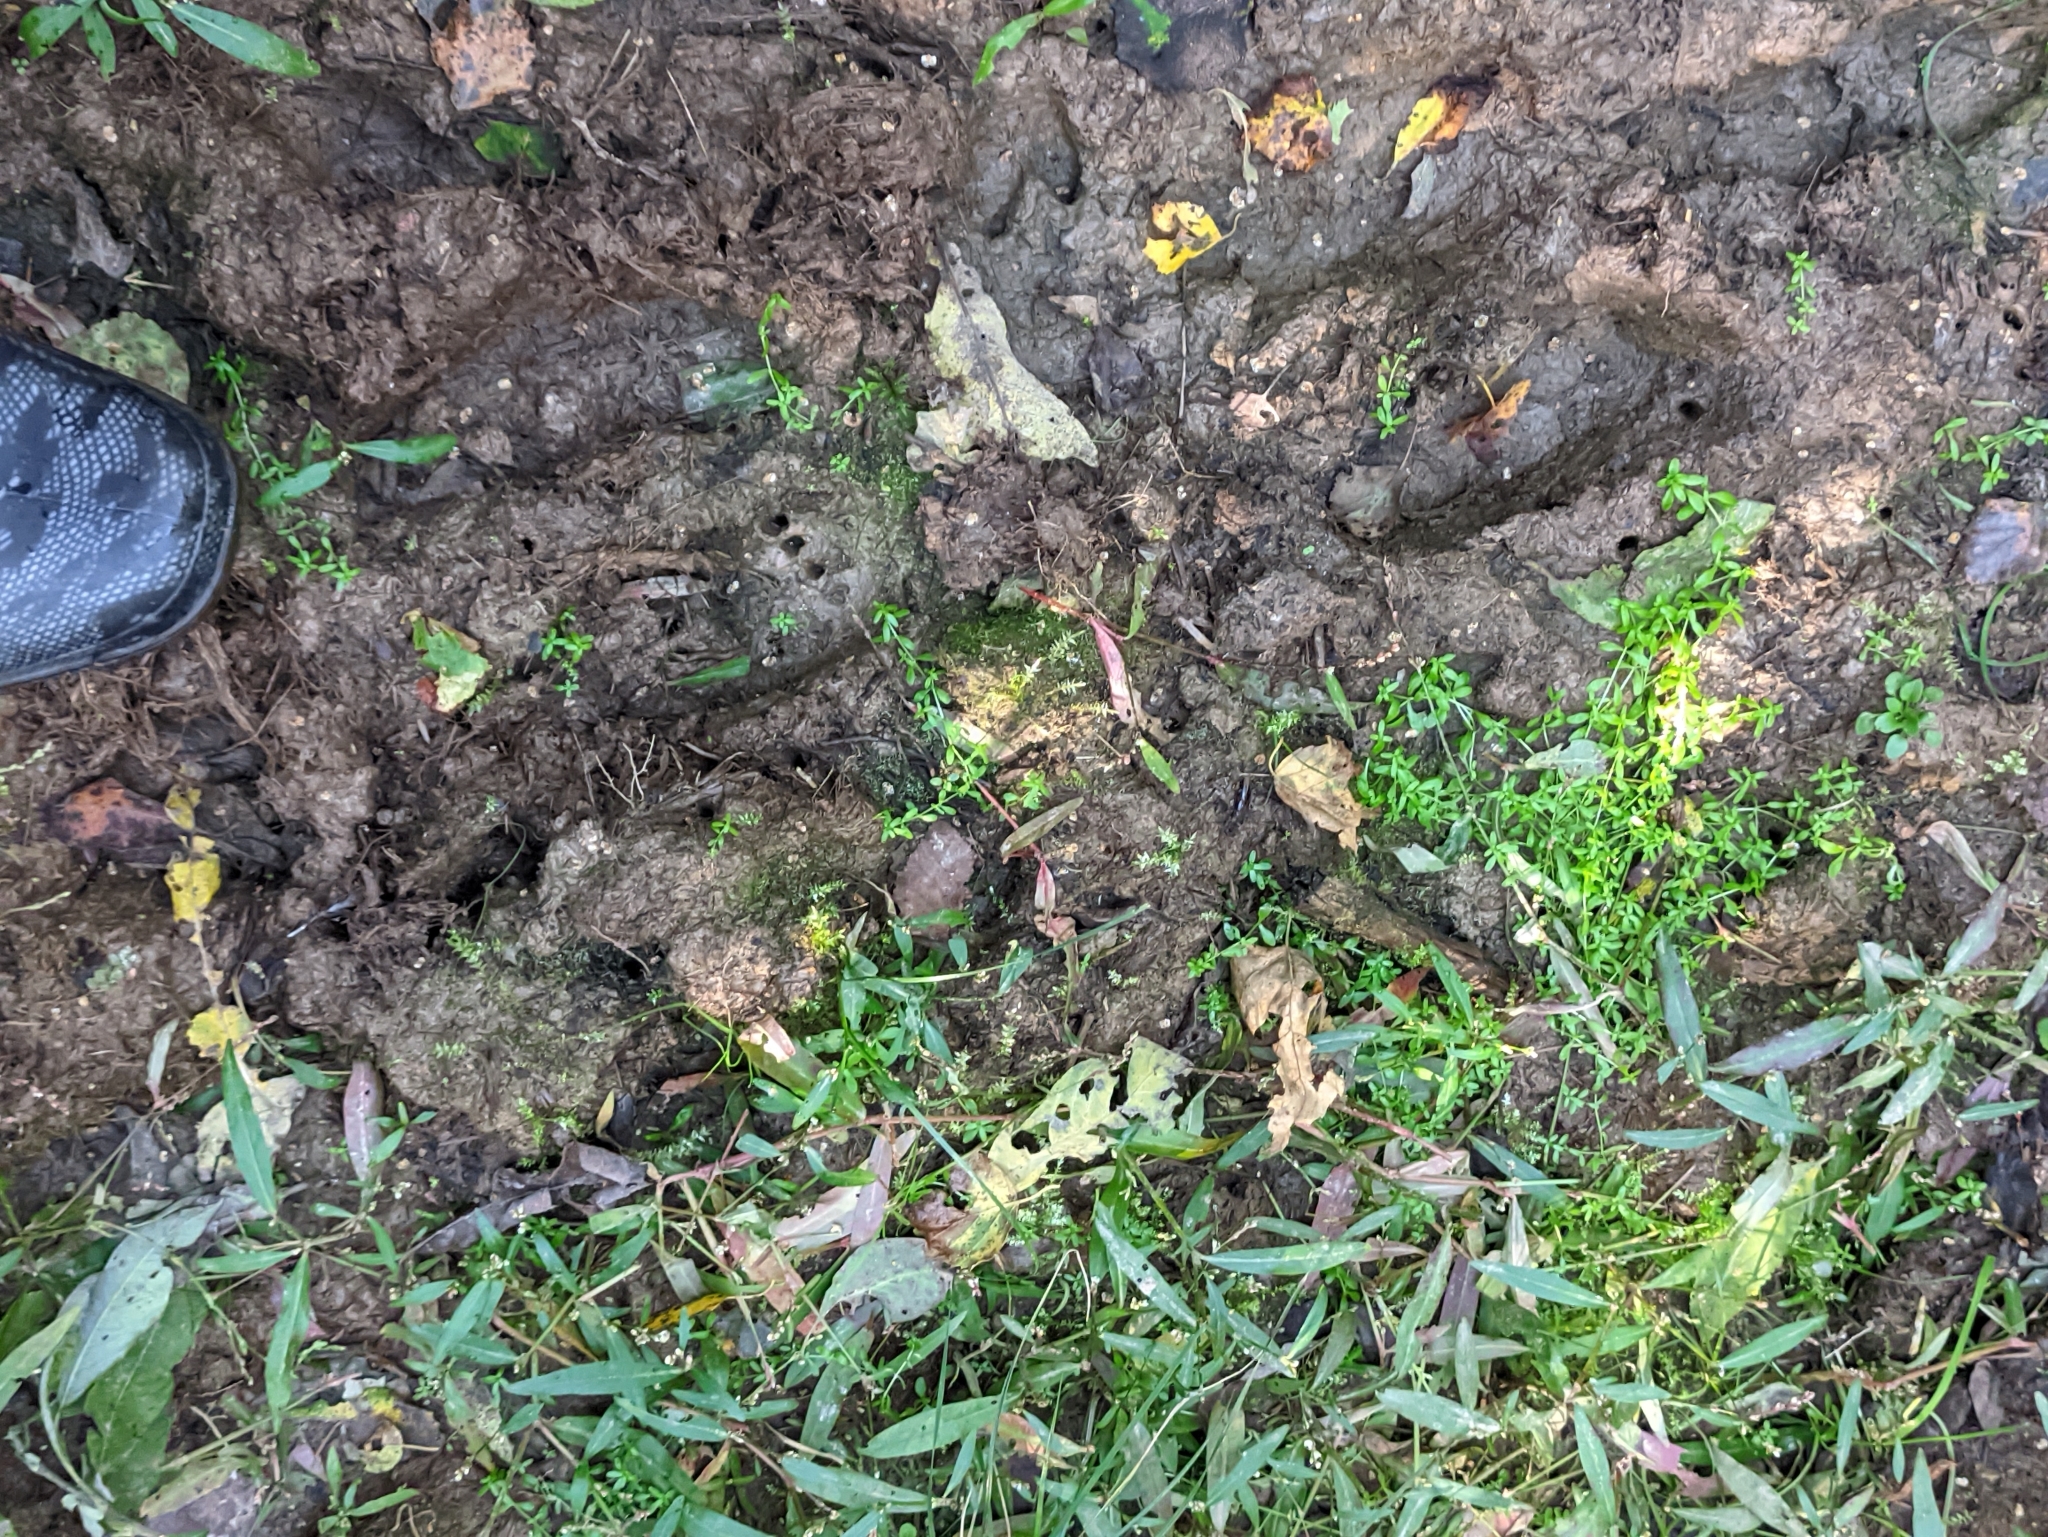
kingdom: Animalia
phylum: Chordata
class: Mammalia
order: Artiodactyla
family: Cervidae
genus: Alces
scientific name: Alces alces
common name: Moose
